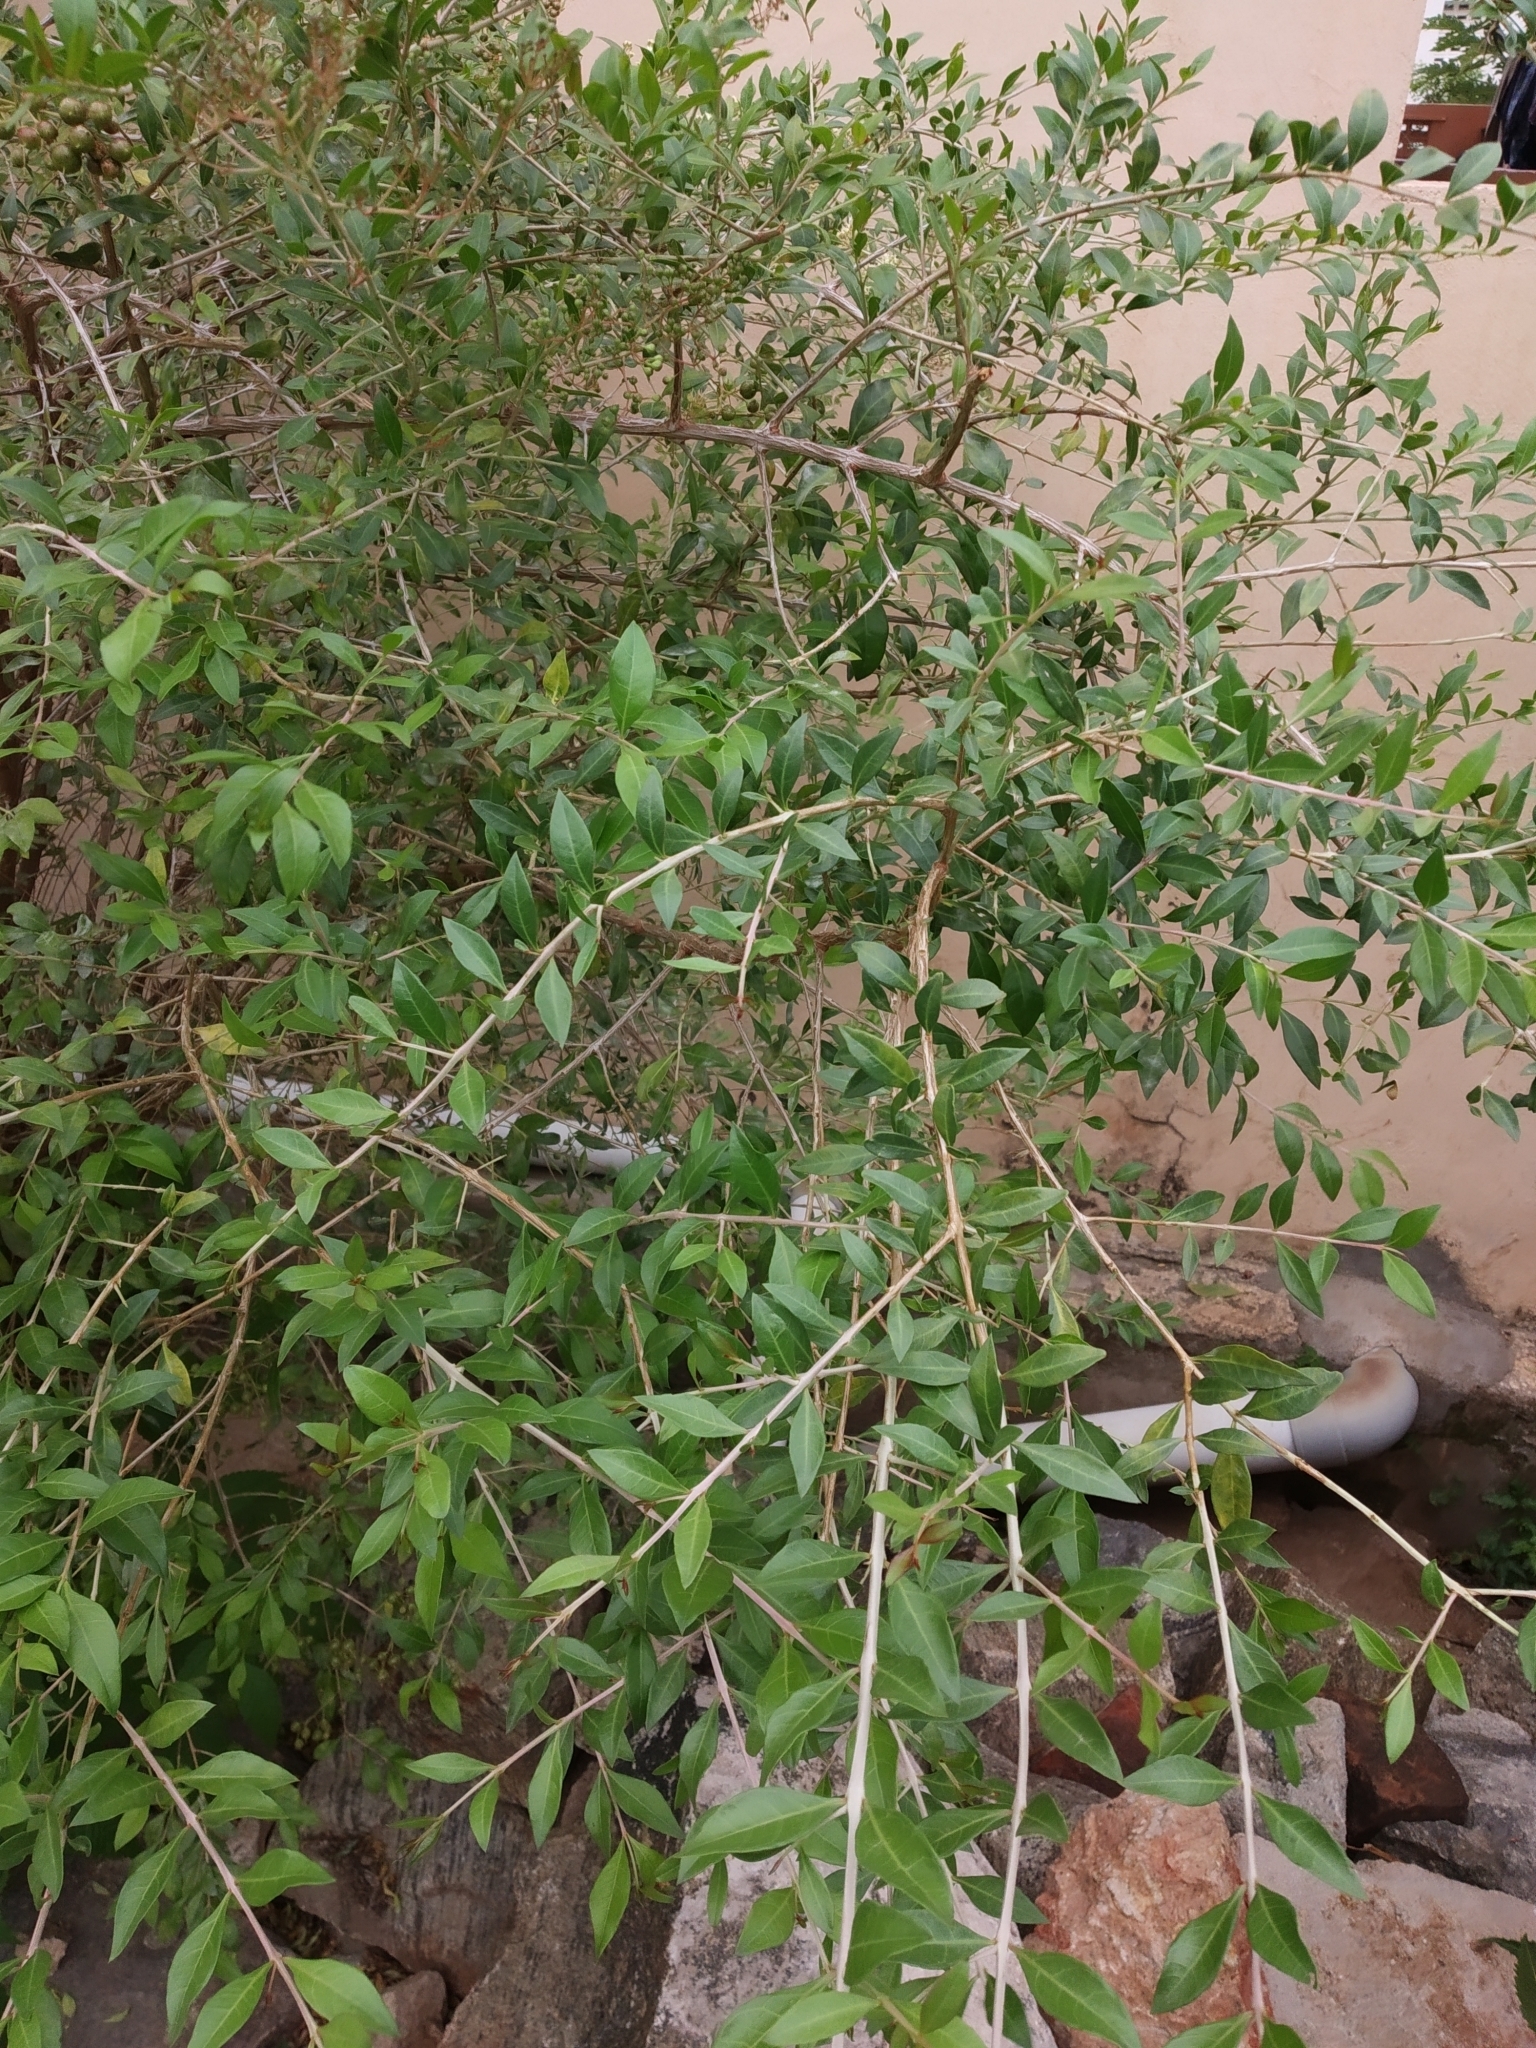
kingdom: Plantae
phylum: Tracheophyta
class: Magnoliopsida
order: Myrtales
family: Lythraceae
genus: Lawsonia
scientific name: Lawsonia inermis
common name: Henna
